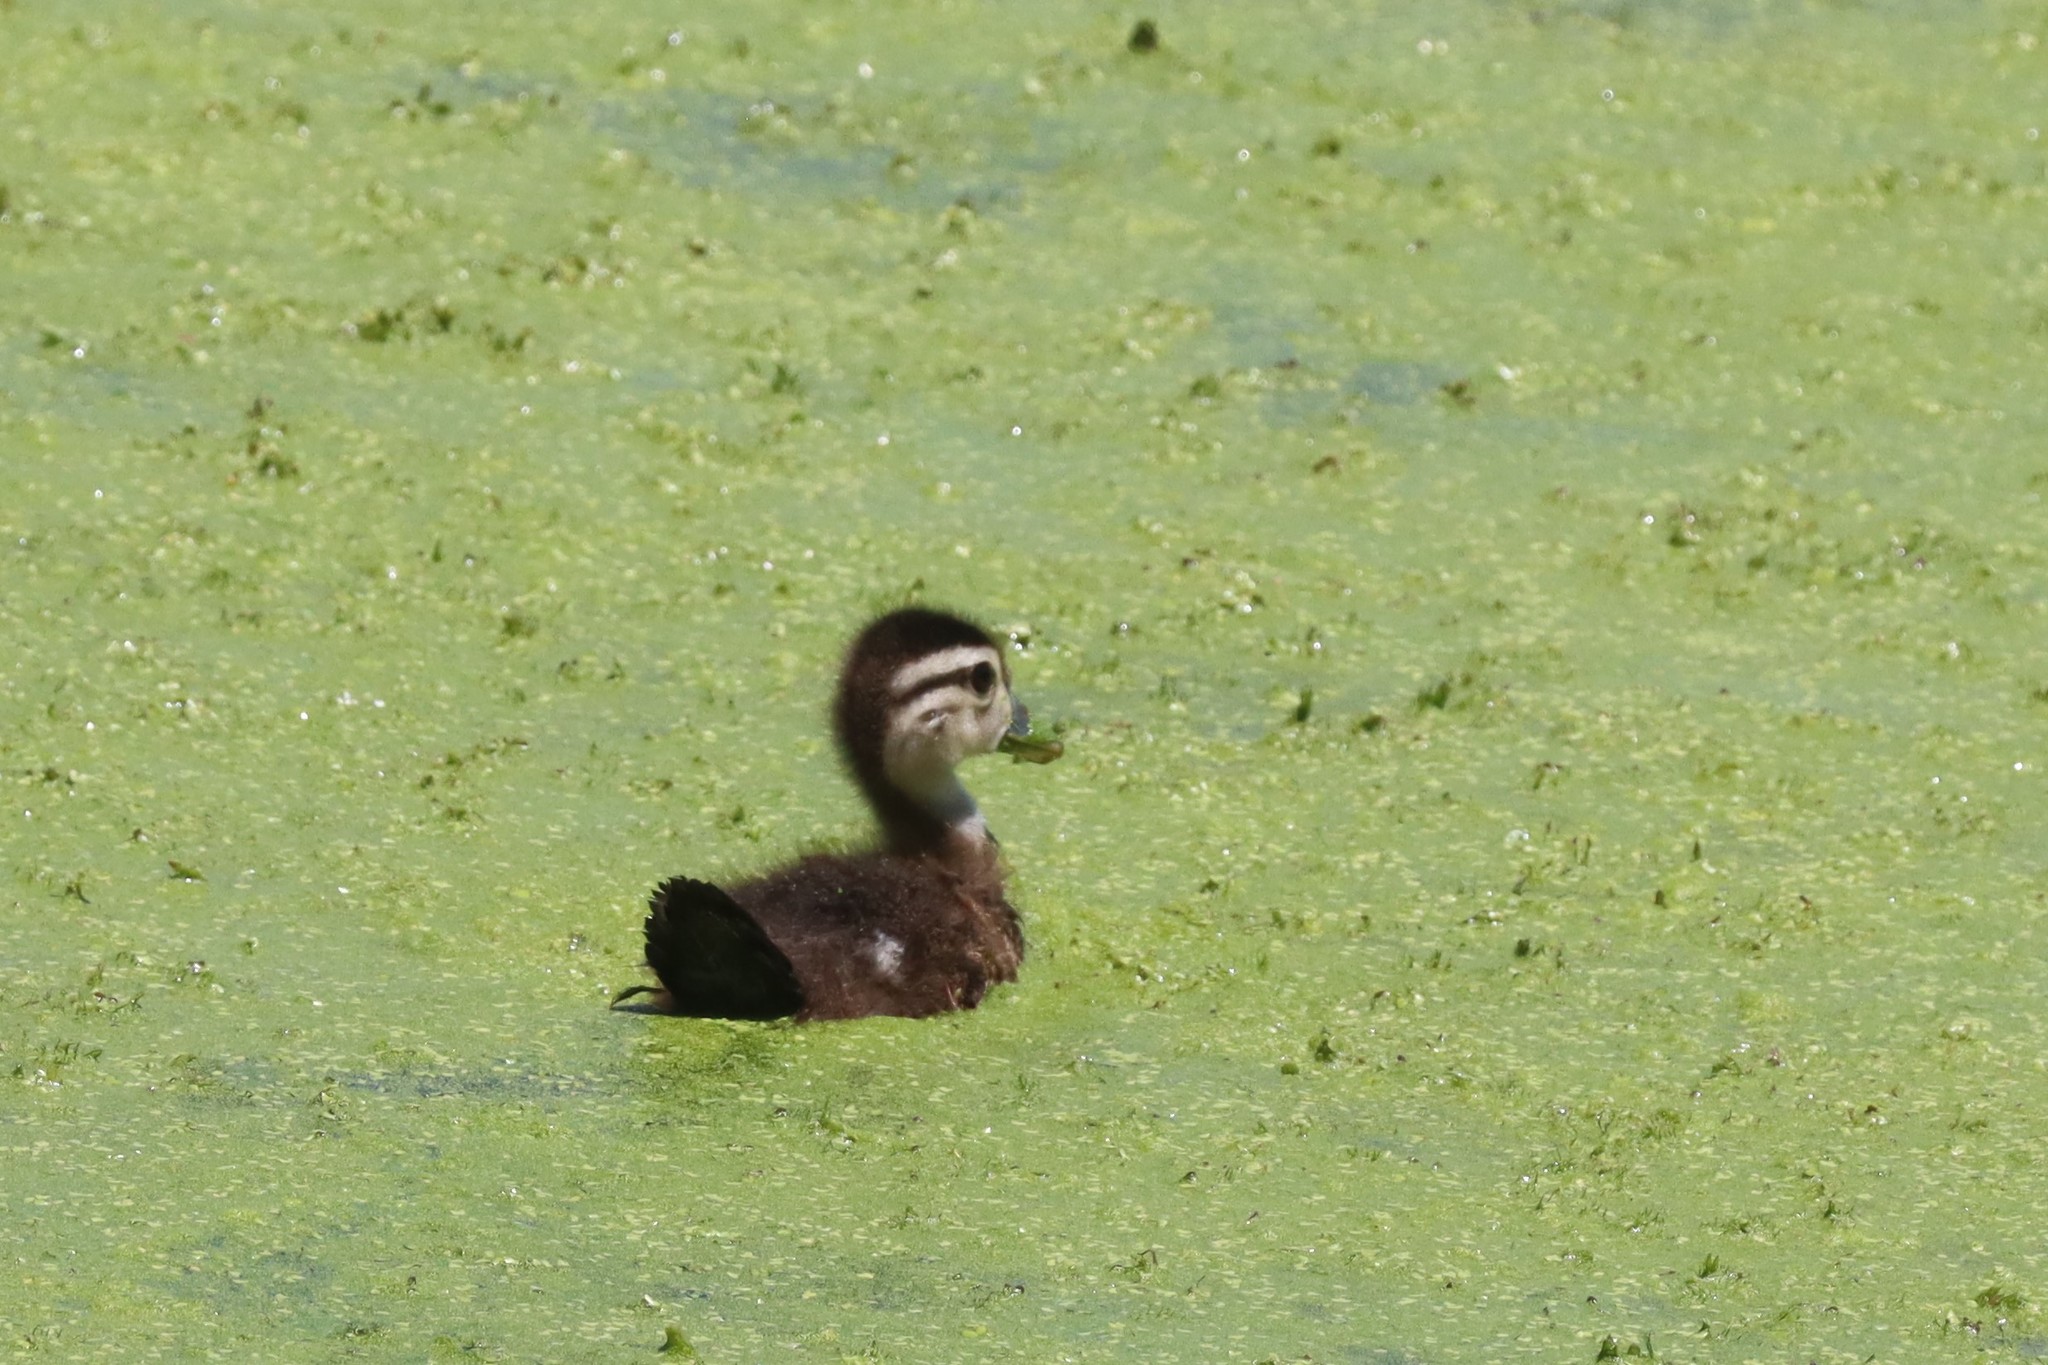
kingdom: Animalia
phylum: Chordata
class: Aves
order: Anseriformes
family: Anatidae
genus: Aix
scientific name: Aix sponsa
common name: Wood duck
